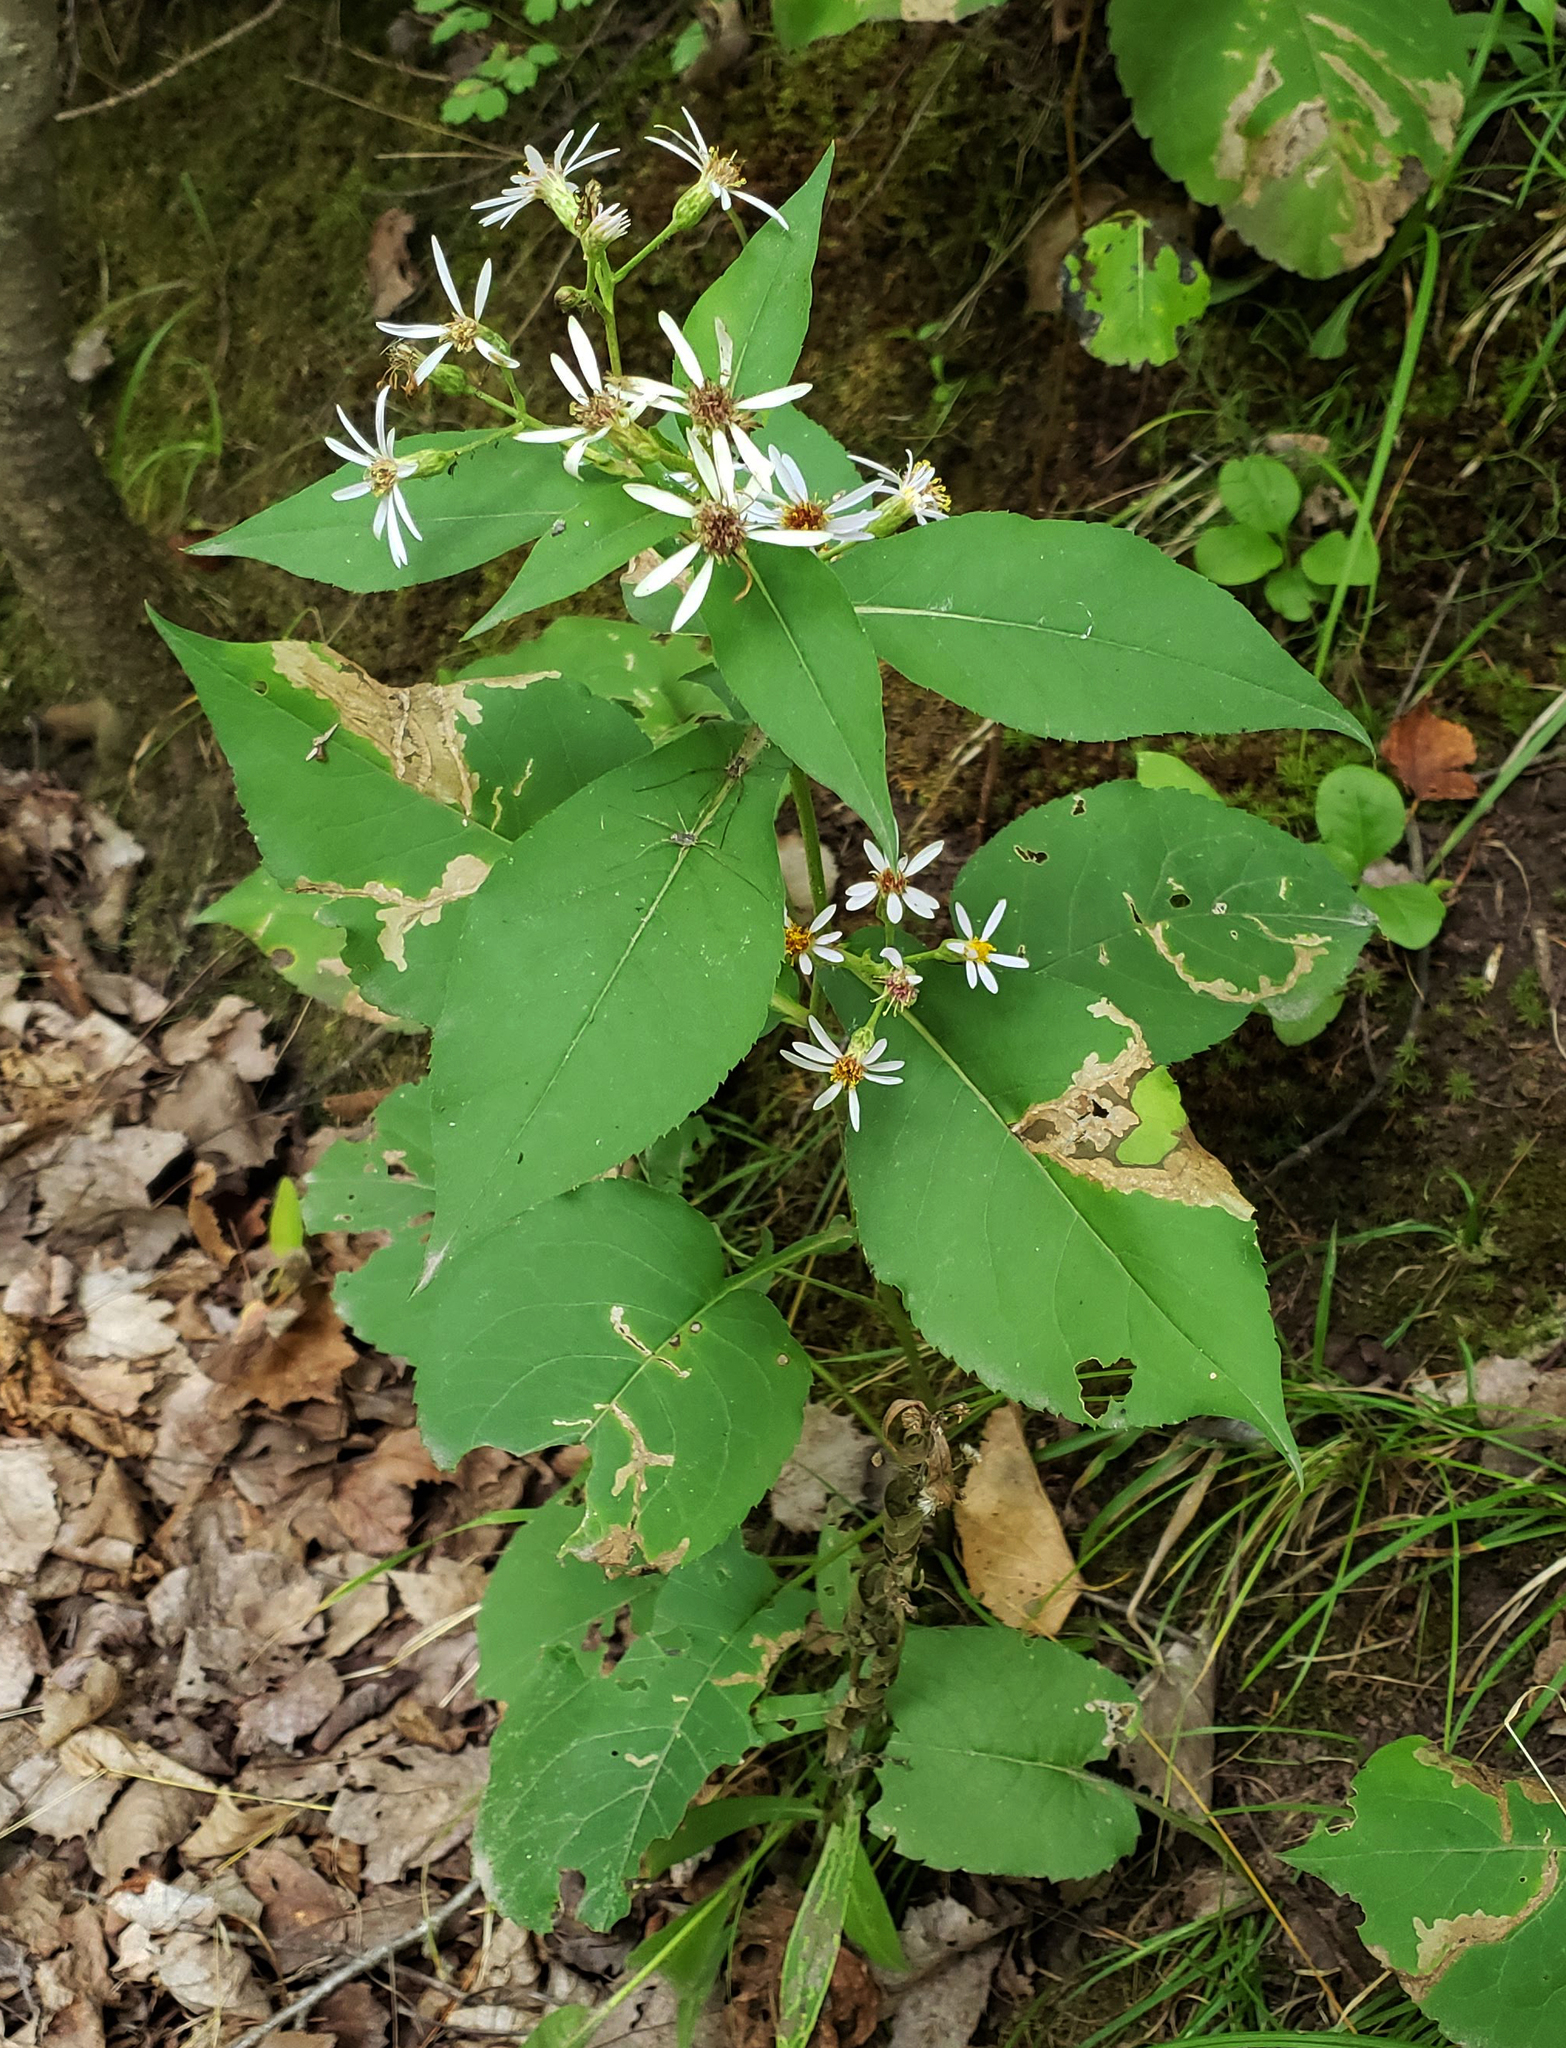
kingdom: Plantae
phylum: Tracheophyta
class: Magnoliopsida
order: Asterales
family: Asteraceae
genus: Eurybia
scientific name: Eurybia macrophylla
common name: Big-leaved aster
